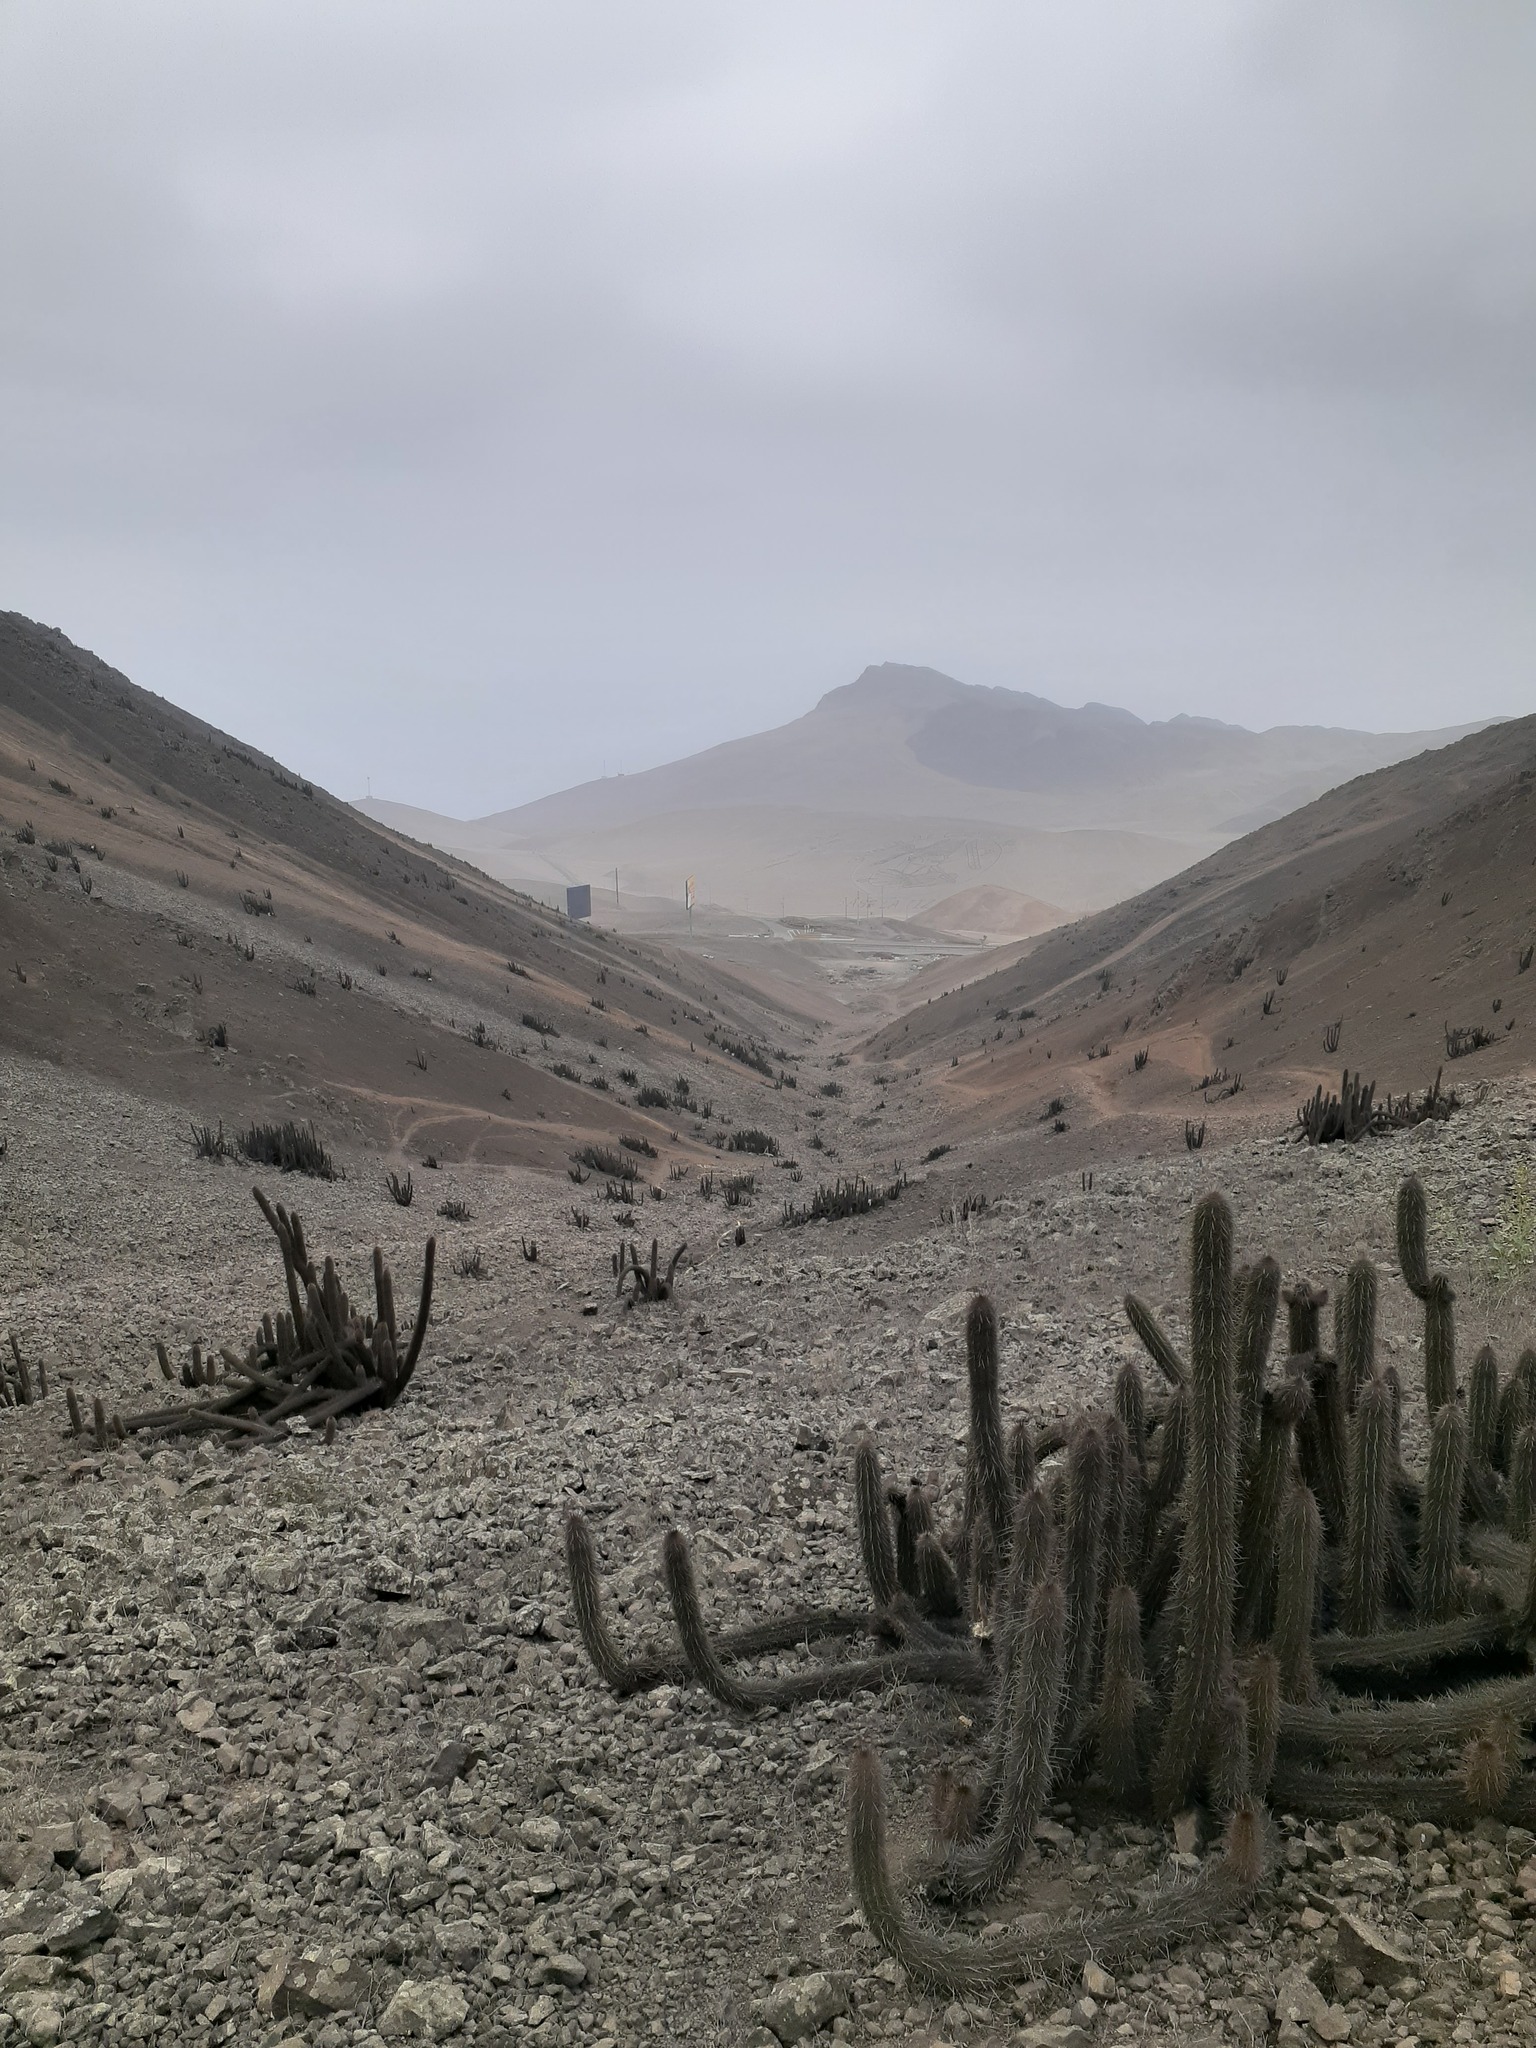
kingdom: Plantae
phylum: Tracheophyta
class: Magnoliopsida
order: Caryophyllales
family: Cactaceae
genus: Haageocereus
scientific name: Haageocereus acranthus
